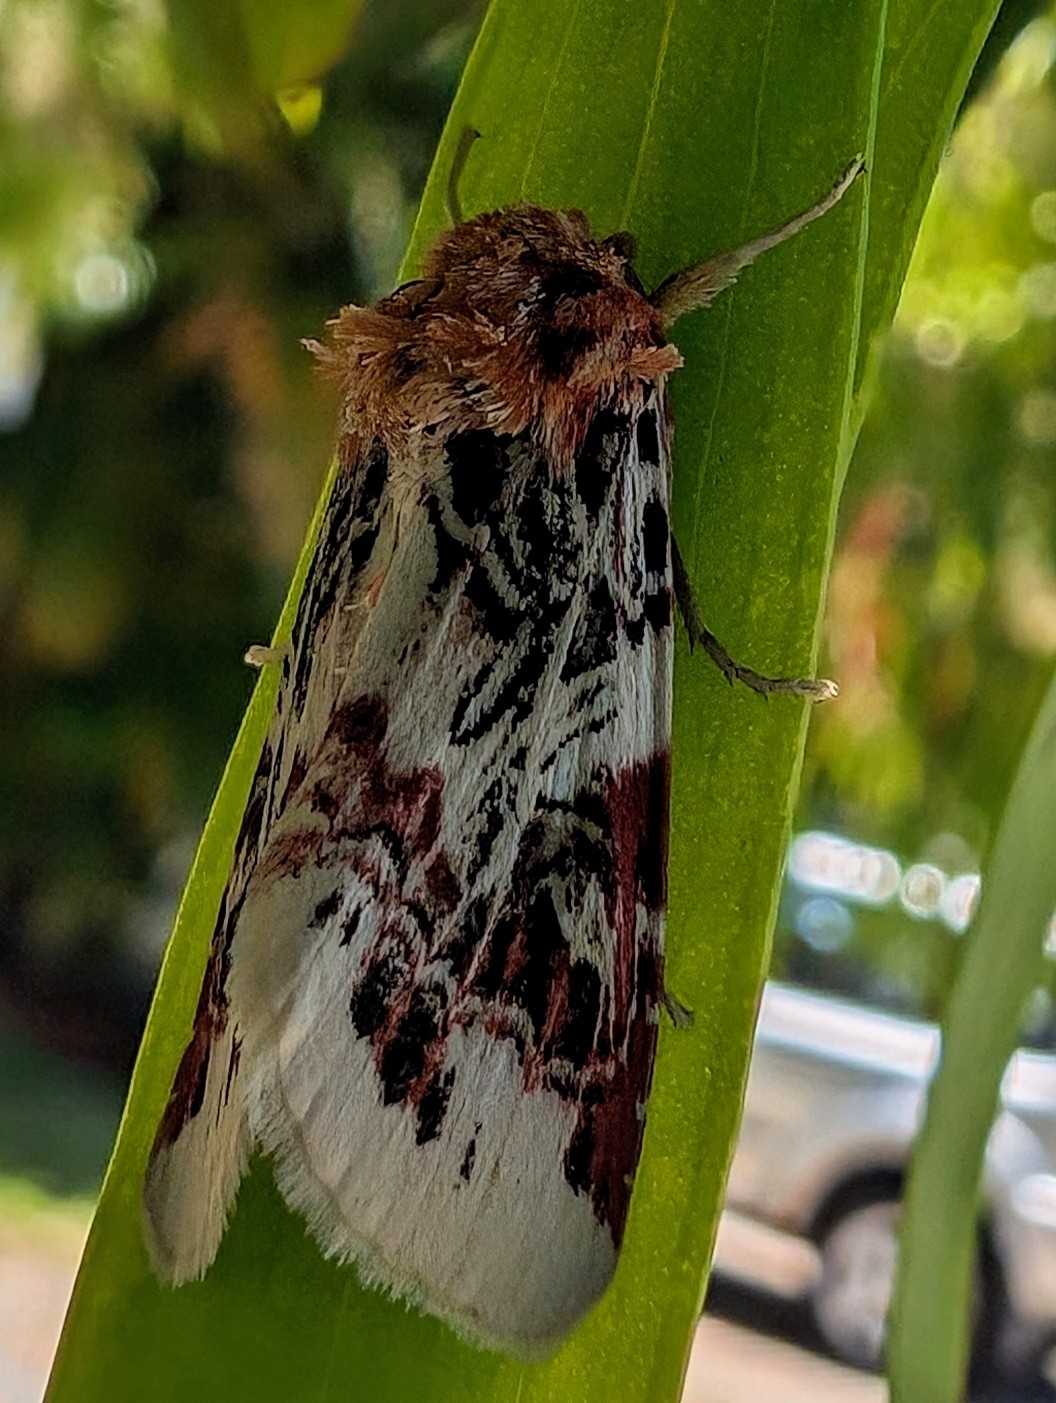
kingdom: Animalia
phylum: Arthropoda
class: Insecta
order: Lepidoptera
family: Noctuidae
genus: Spodoptera
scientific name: Spodoptera picta
